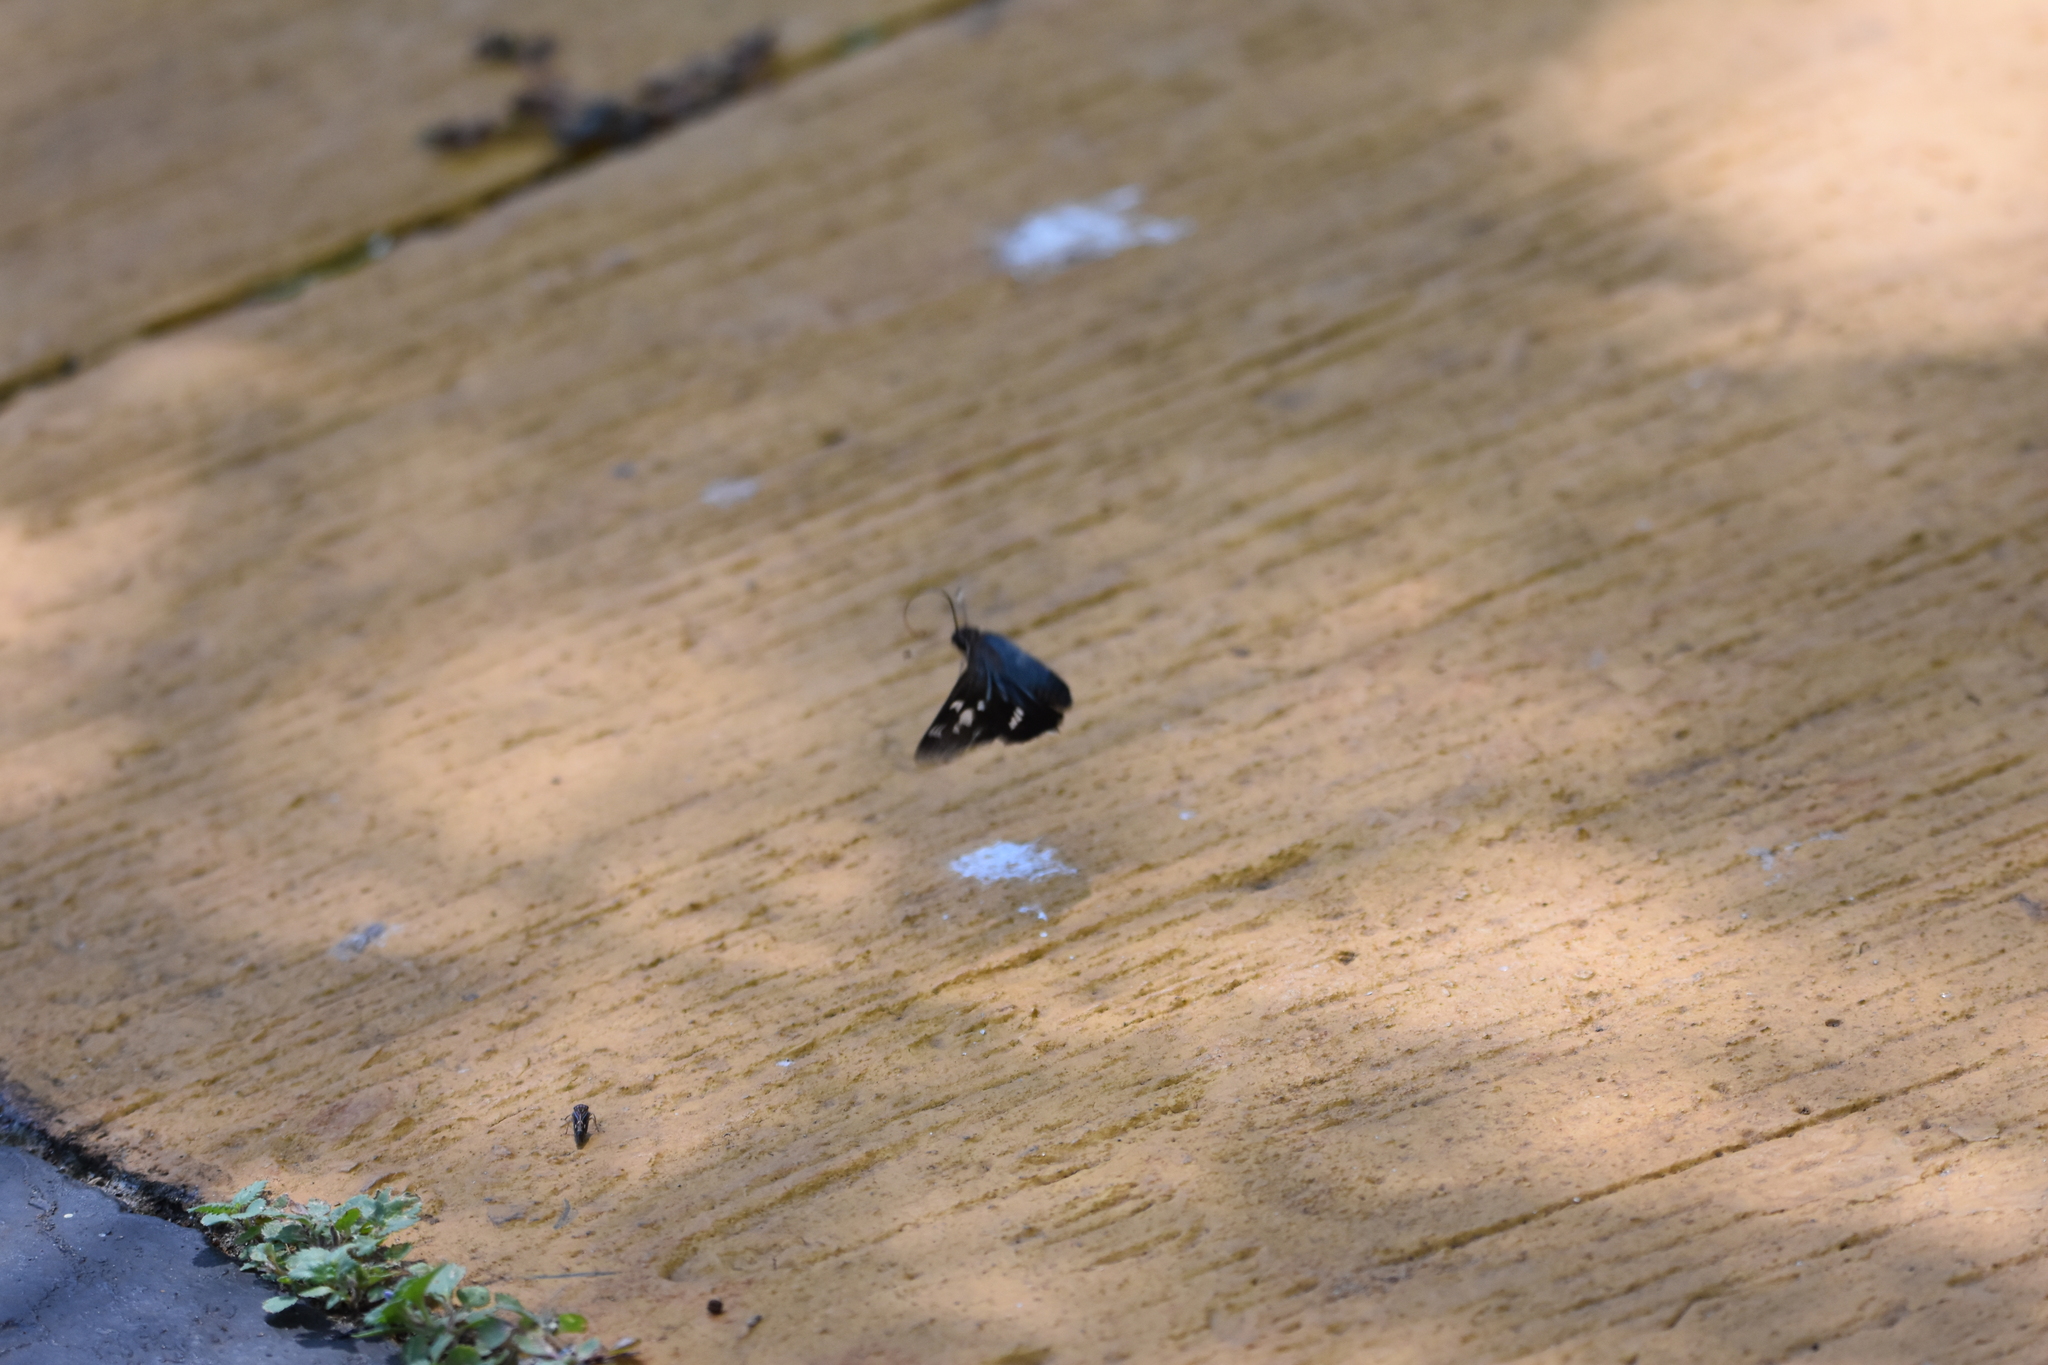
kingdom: Animalia
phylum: Arthropoda
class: Insecta
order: Lepidoptera
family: Hesperiidae
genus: Thespieus
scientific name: Thespieus aspernatus
